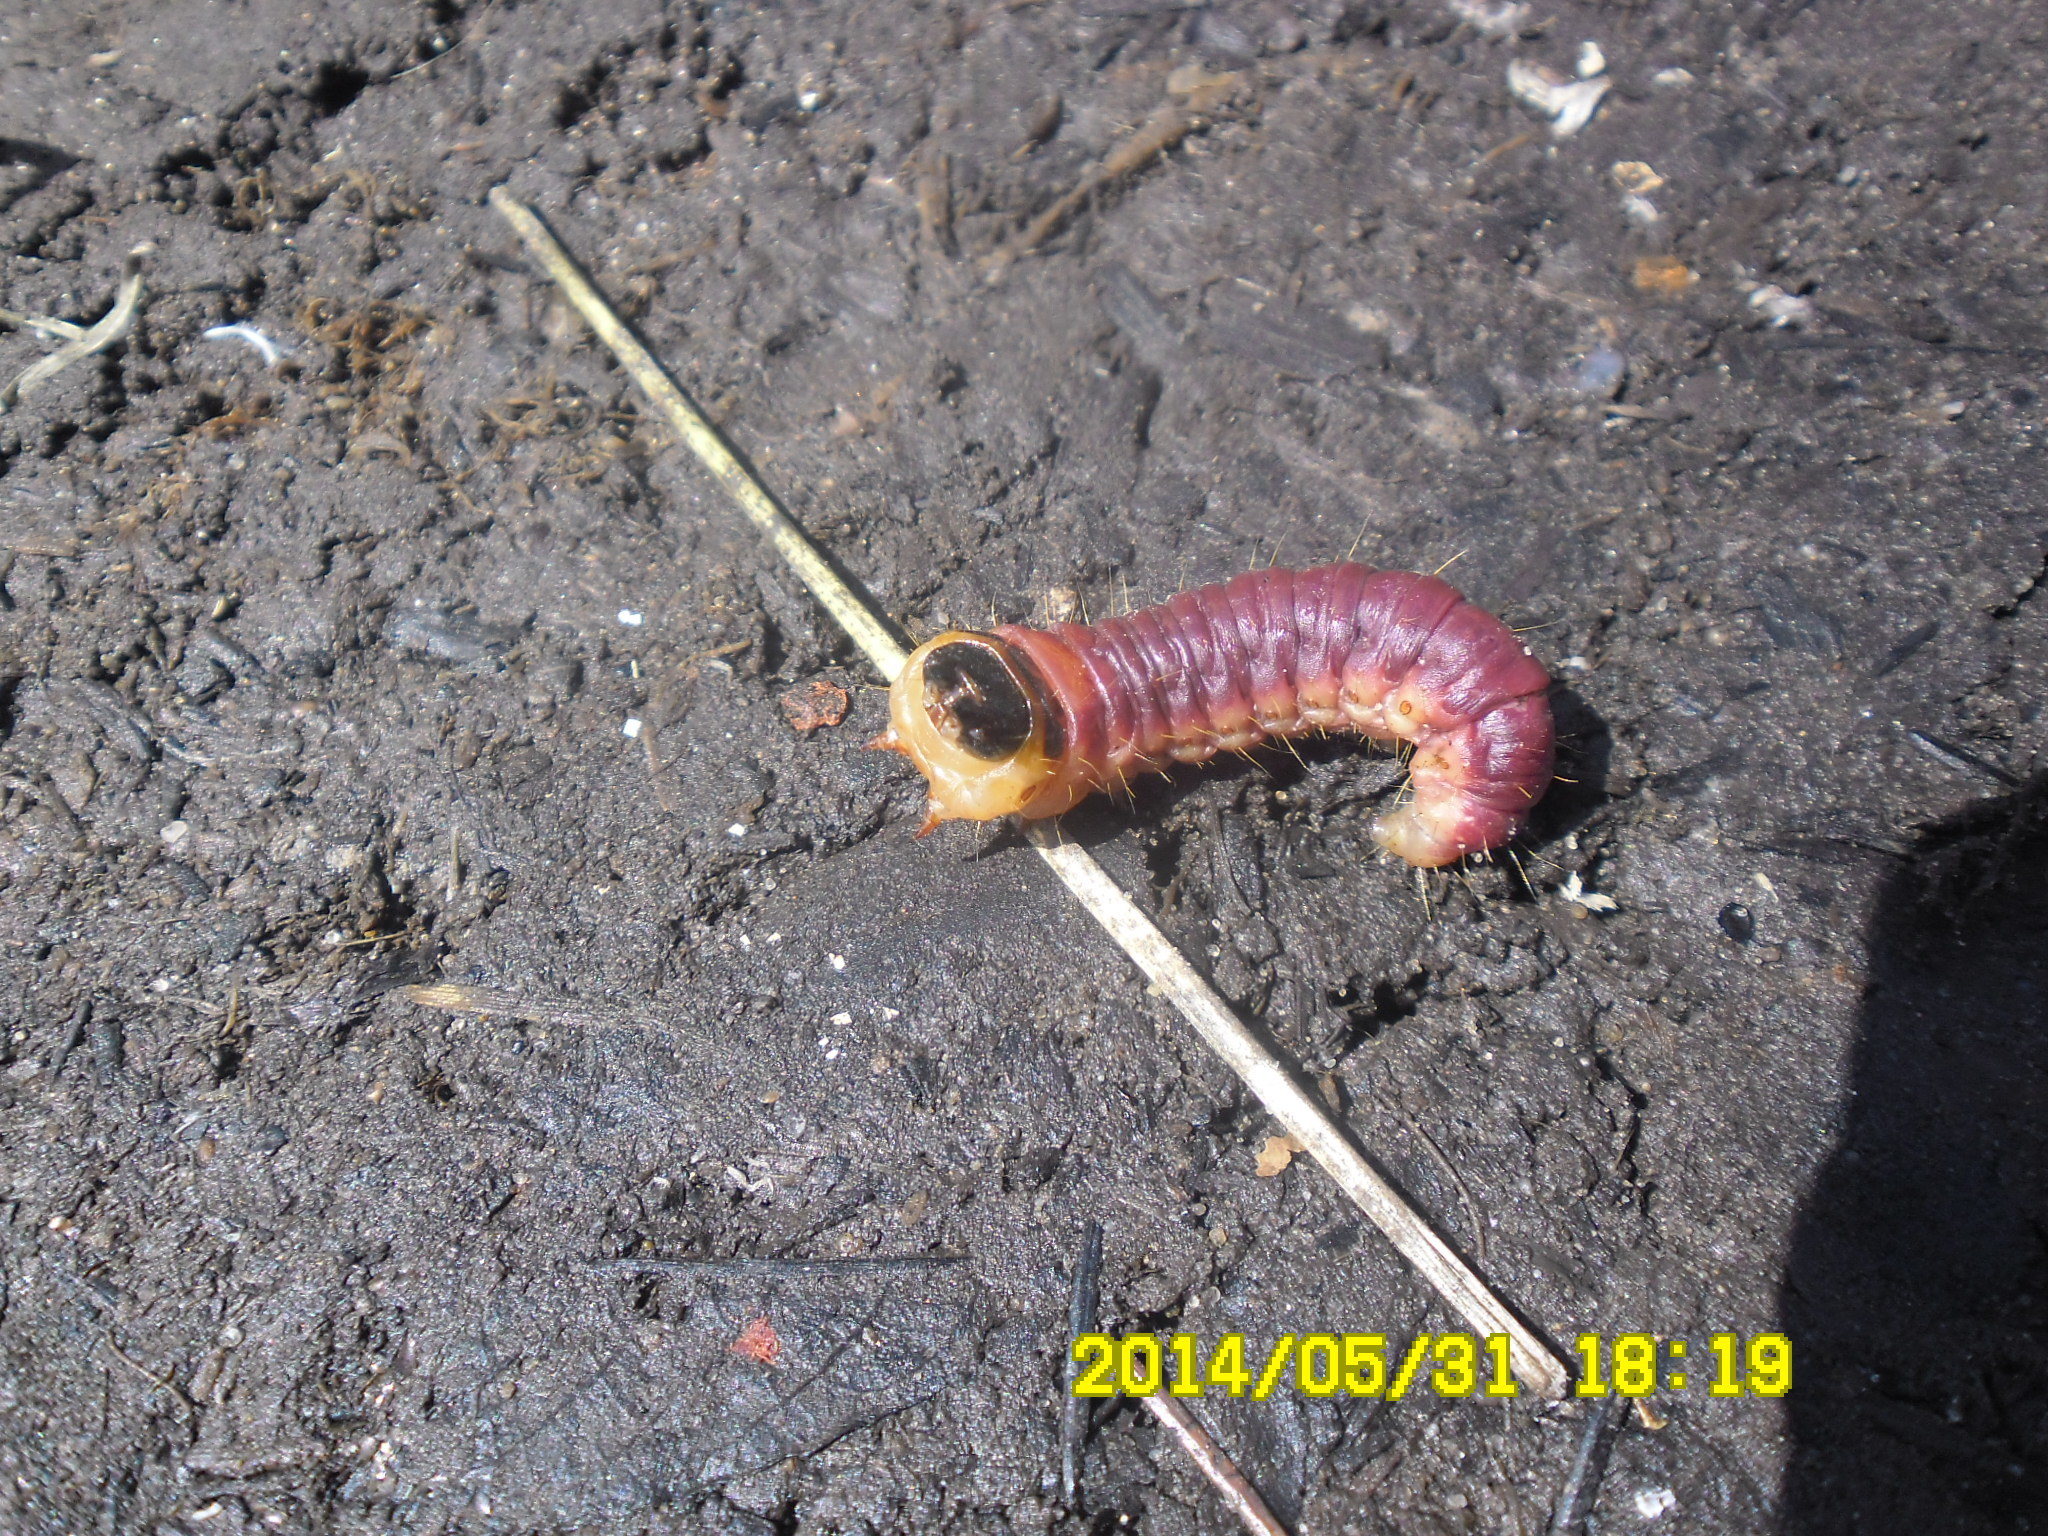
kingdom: Animalia
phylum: Arthropoda
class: Insecta
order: Lepidoptera
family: Cossidae
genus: Cossus
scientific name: Cossus cossus
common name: Goat moth
